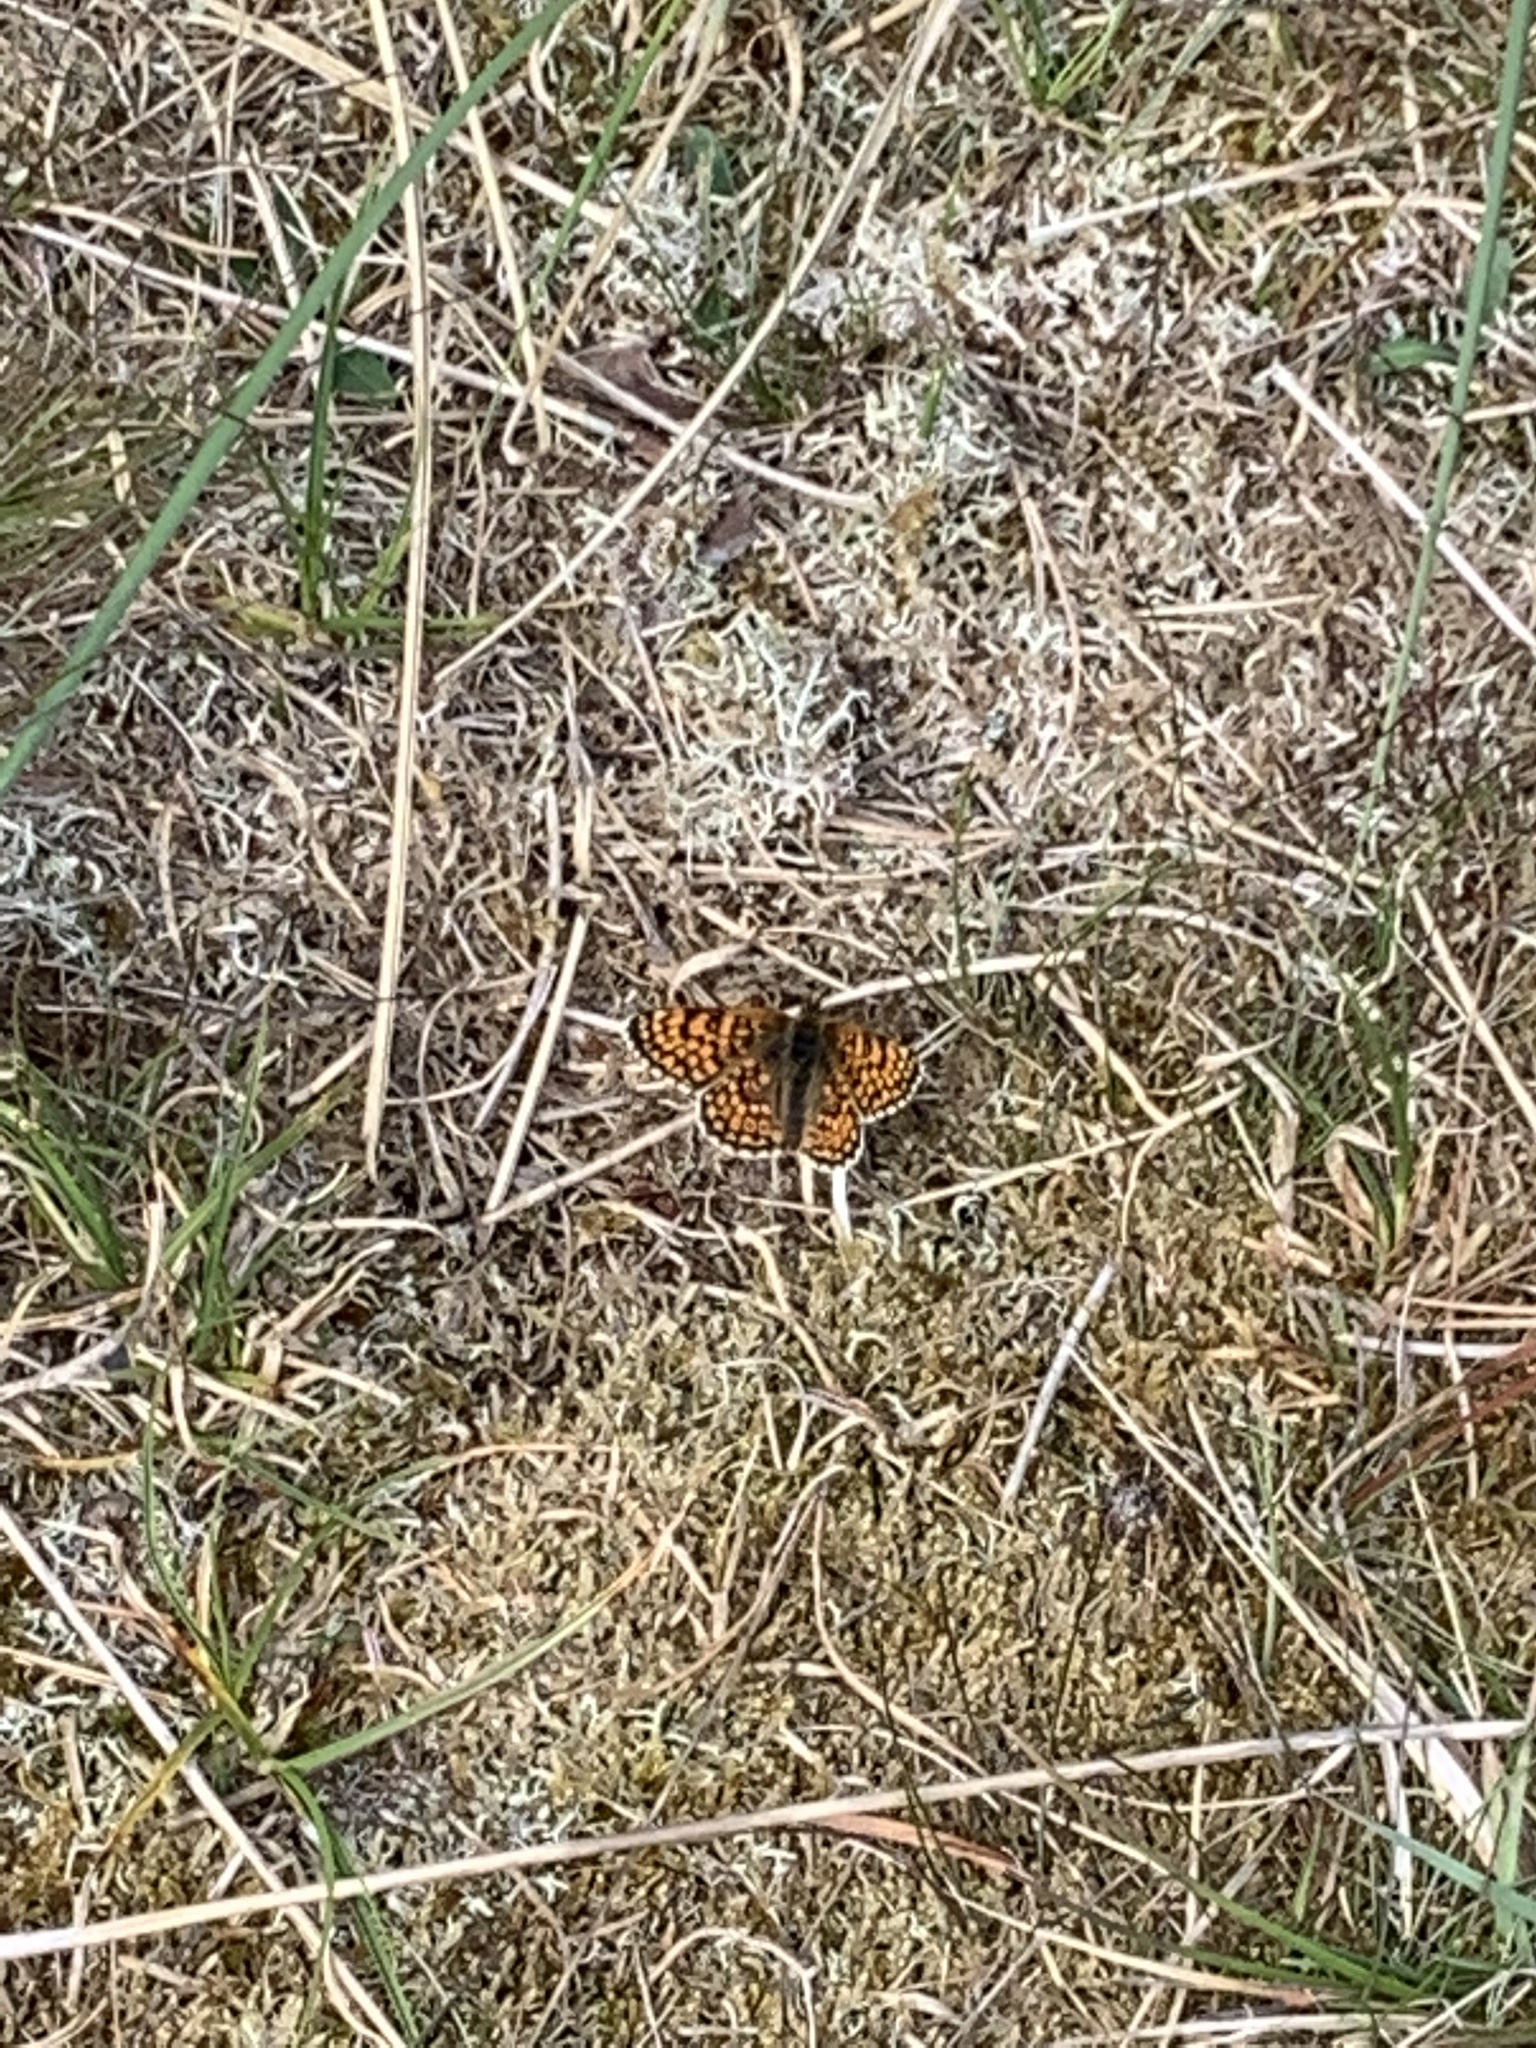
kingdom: Animalia
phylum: Arthropoda
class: Insecta
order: Lepidoptera
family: Nymphalidae
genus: Melitaea
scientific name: Melitaea cinxia
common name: Glanville fritillary
